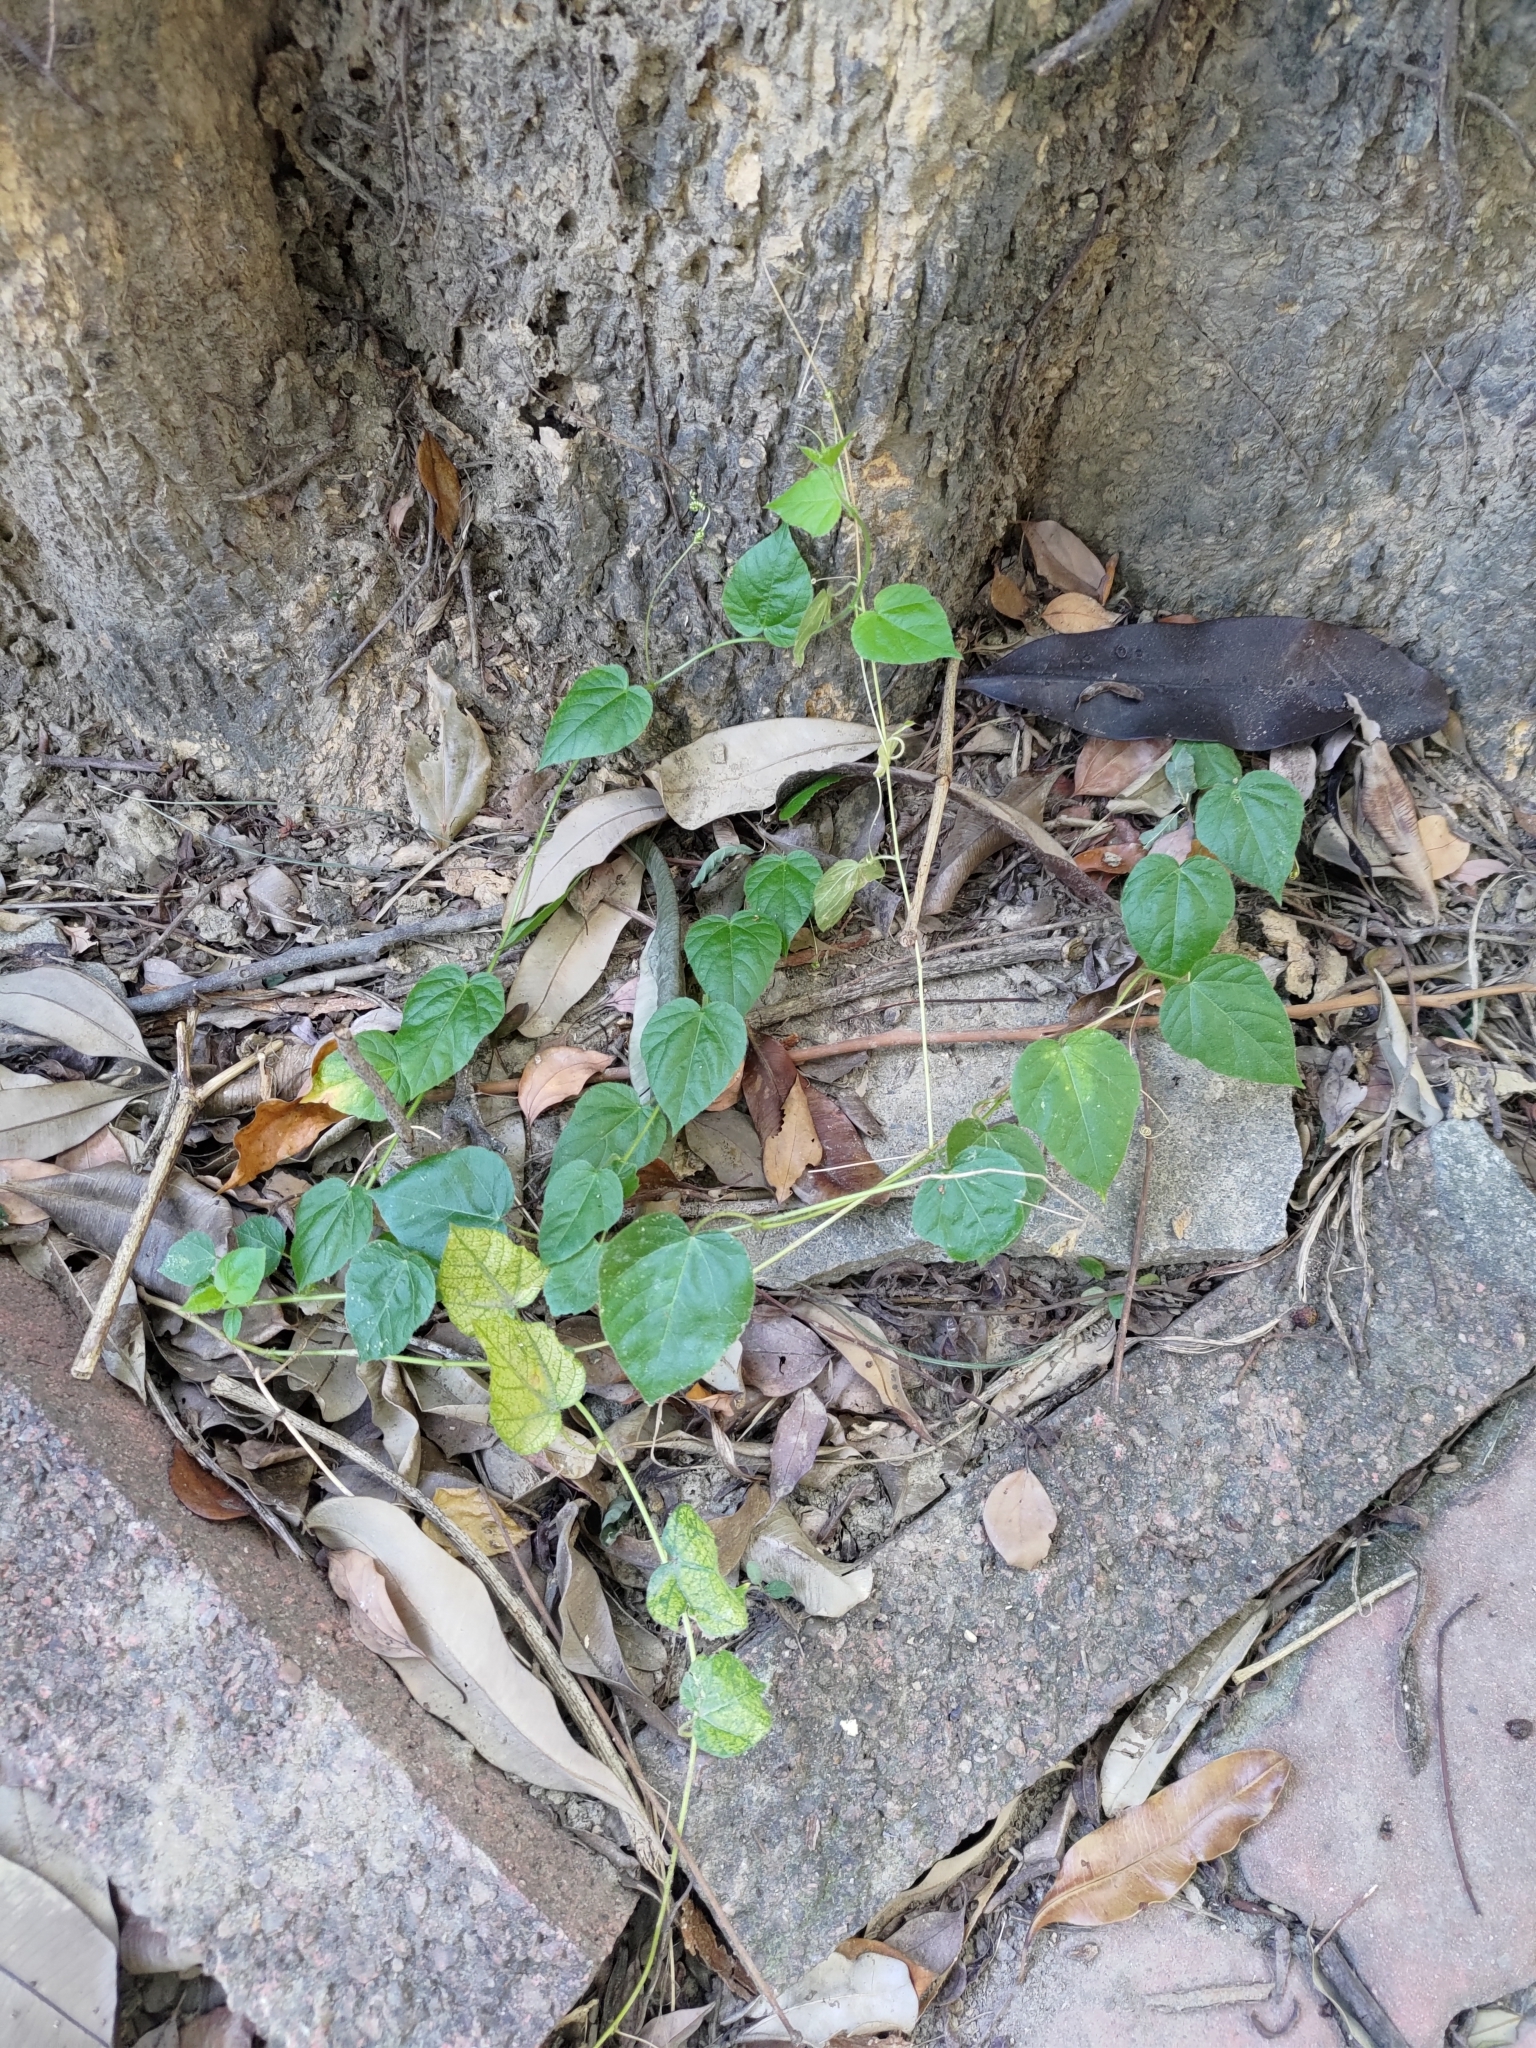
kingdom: Plantae
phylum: Tracheophyta
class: Magnoliopsida
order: Malpighiales
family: Passifloraceae
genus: Passiflora
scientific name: Passiflora vesicaria
